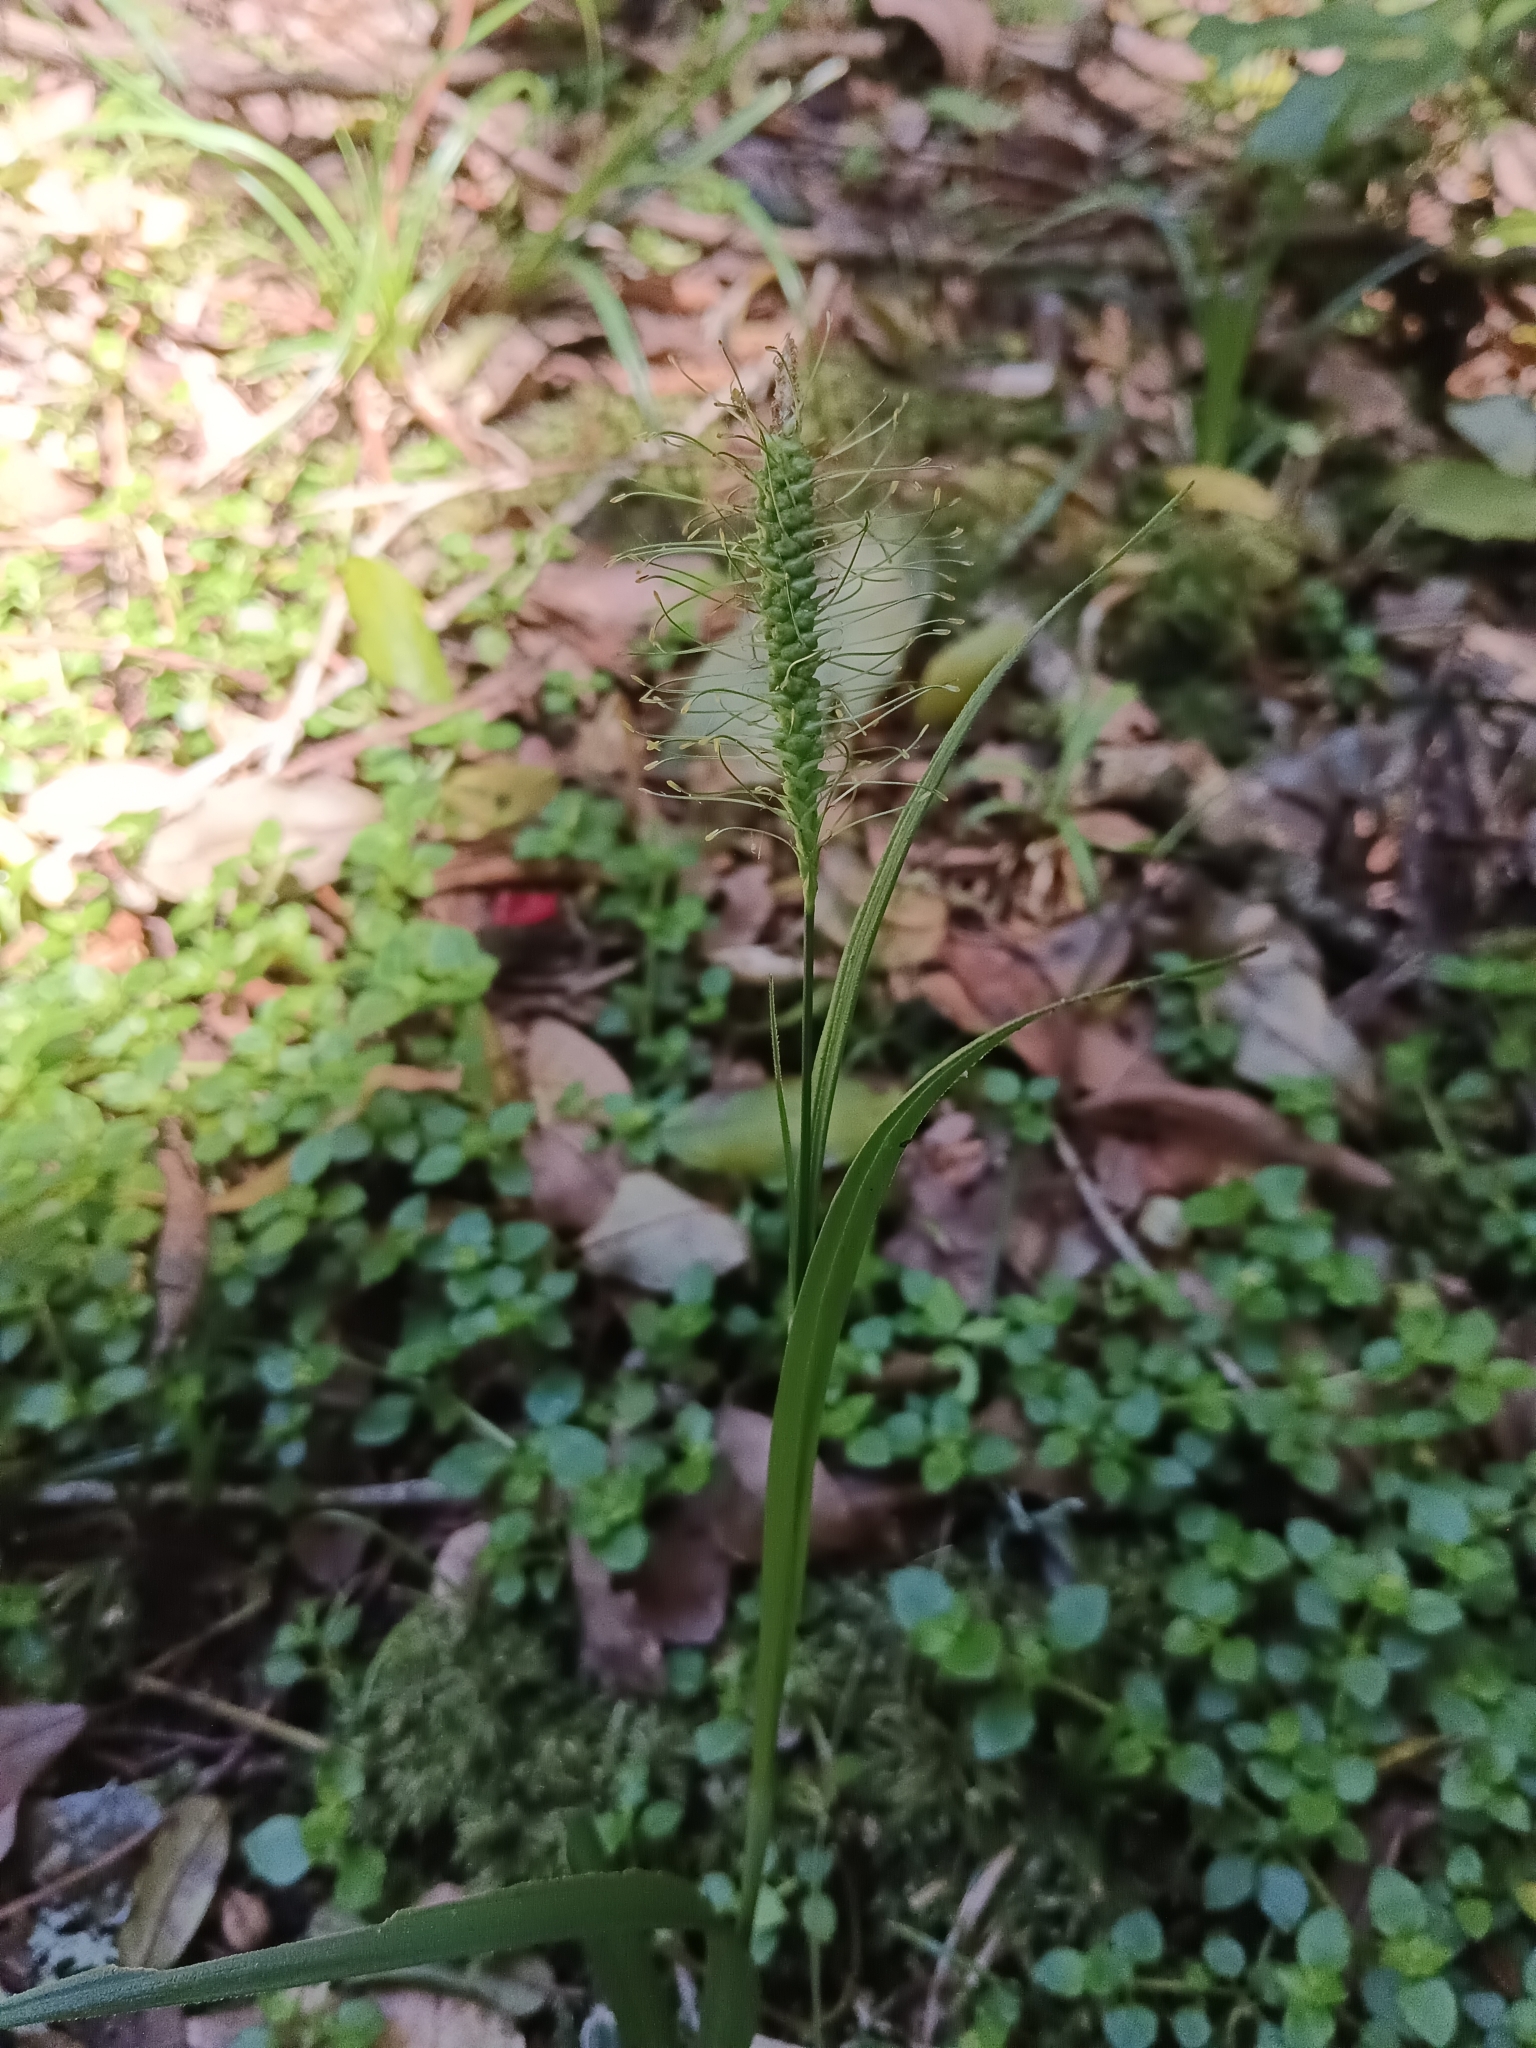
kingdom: Plantae
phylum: Tracheophyta
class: Liliopsida
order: Poales
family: Cyperaceae
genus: Carex
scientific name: Carex erinacea
